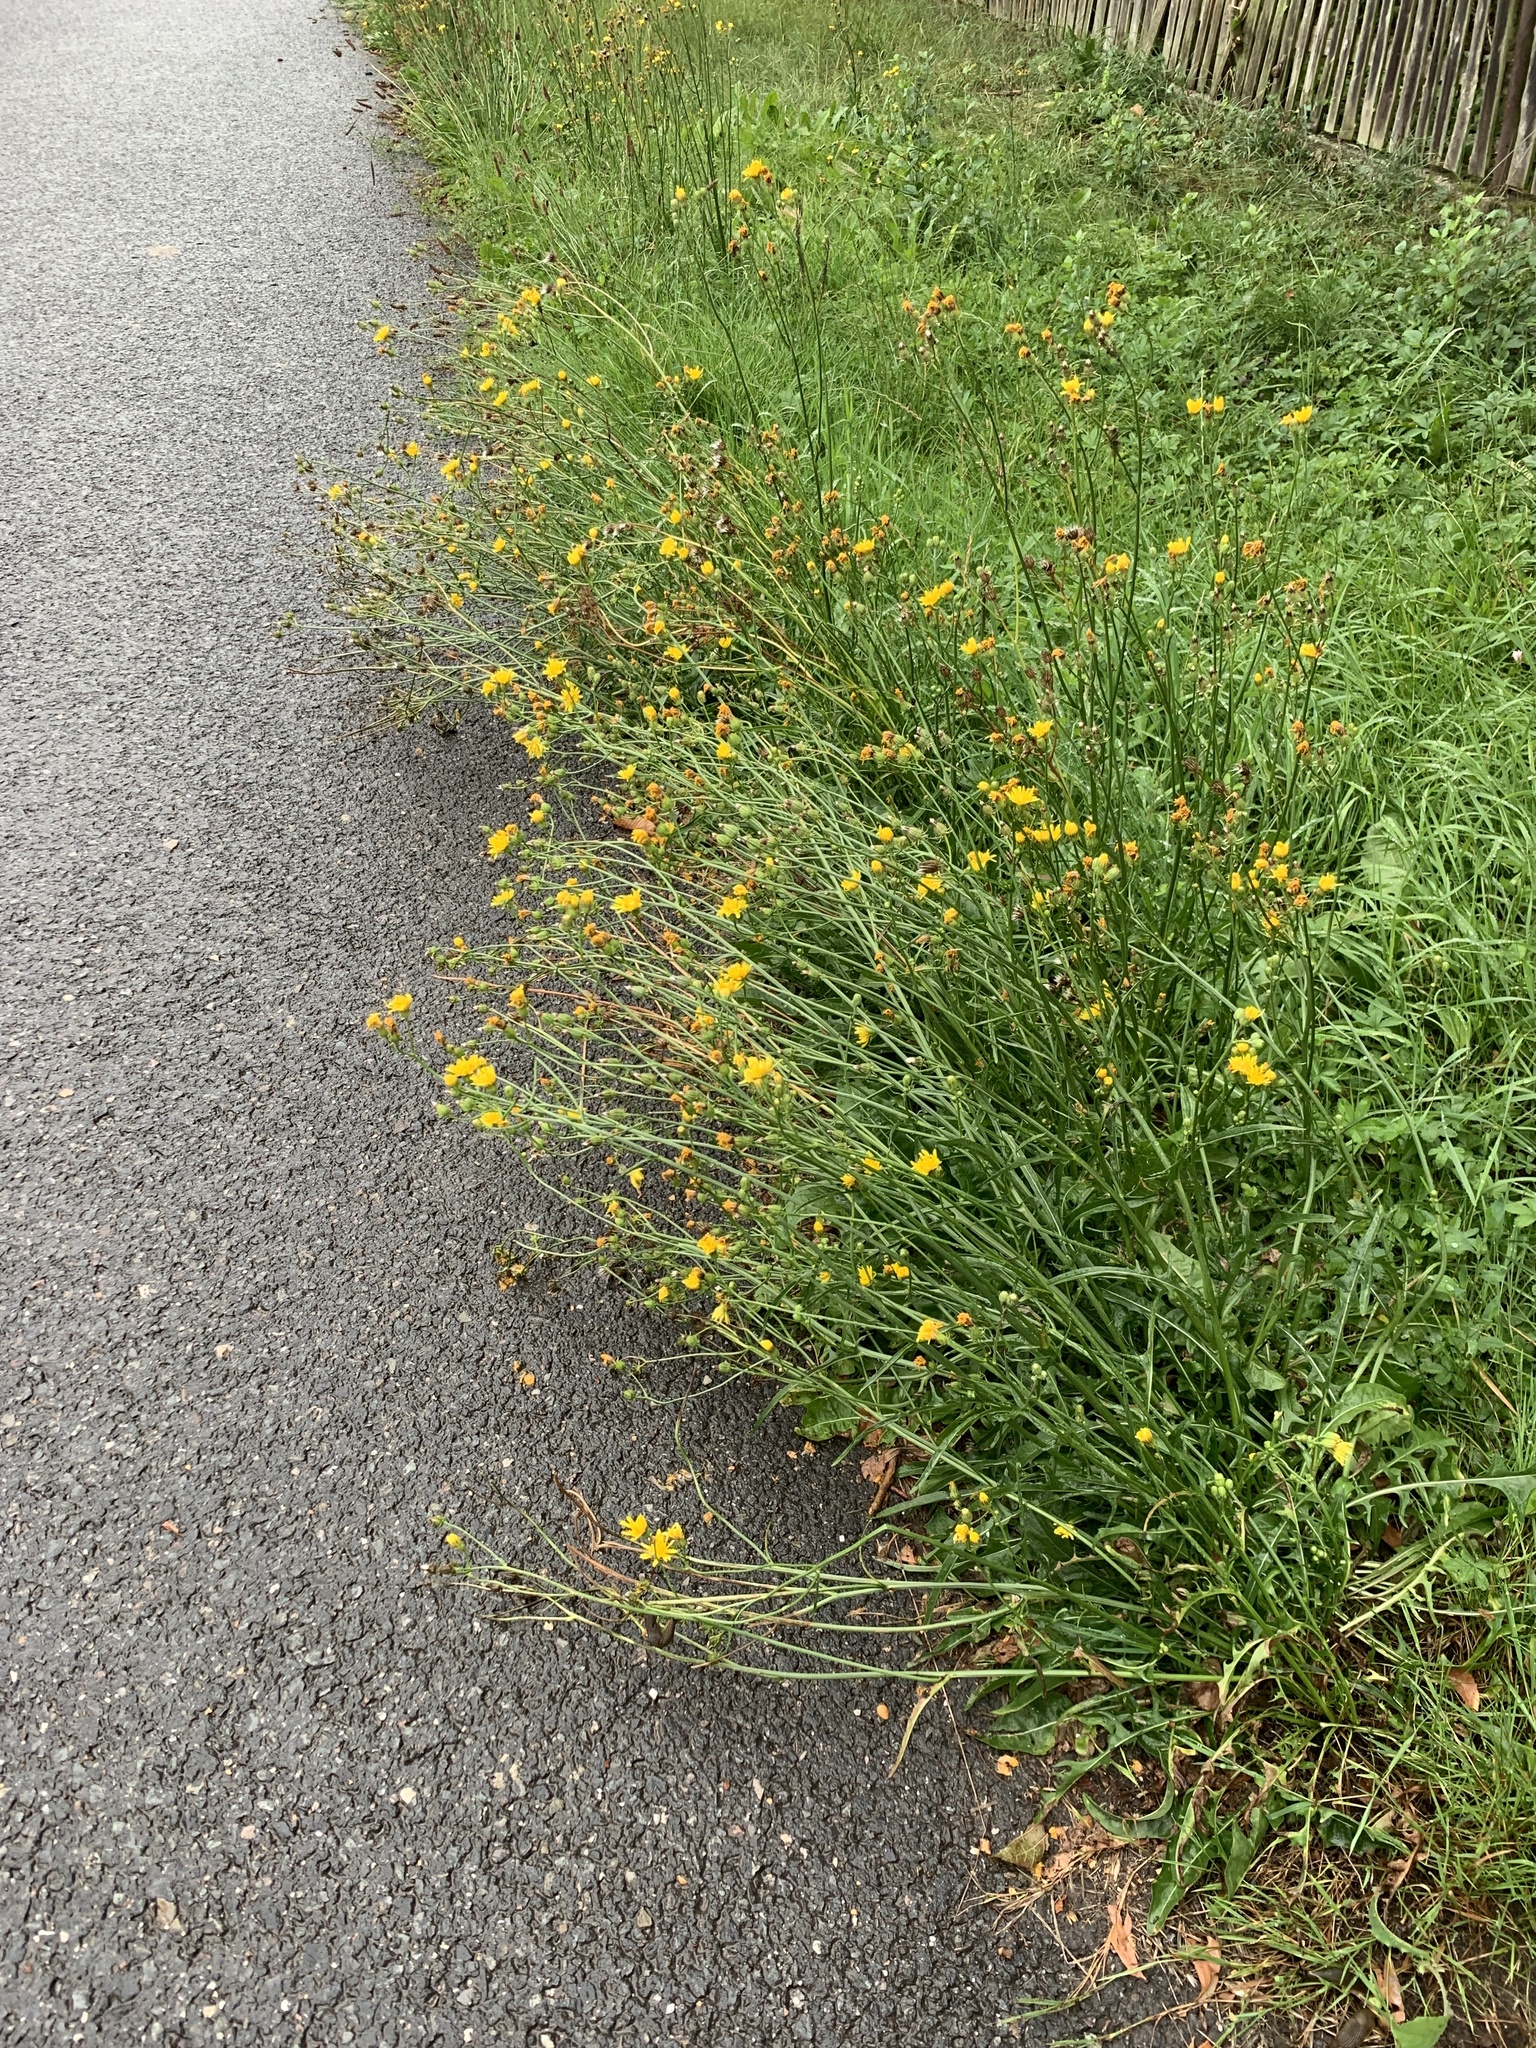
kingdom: Plantae
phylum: Tracheophyta
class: Magnoliopsida
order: Asterales
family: Asteraceae
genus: Crepis
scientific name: Crepis biennis
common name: Rough hawk's-beard
